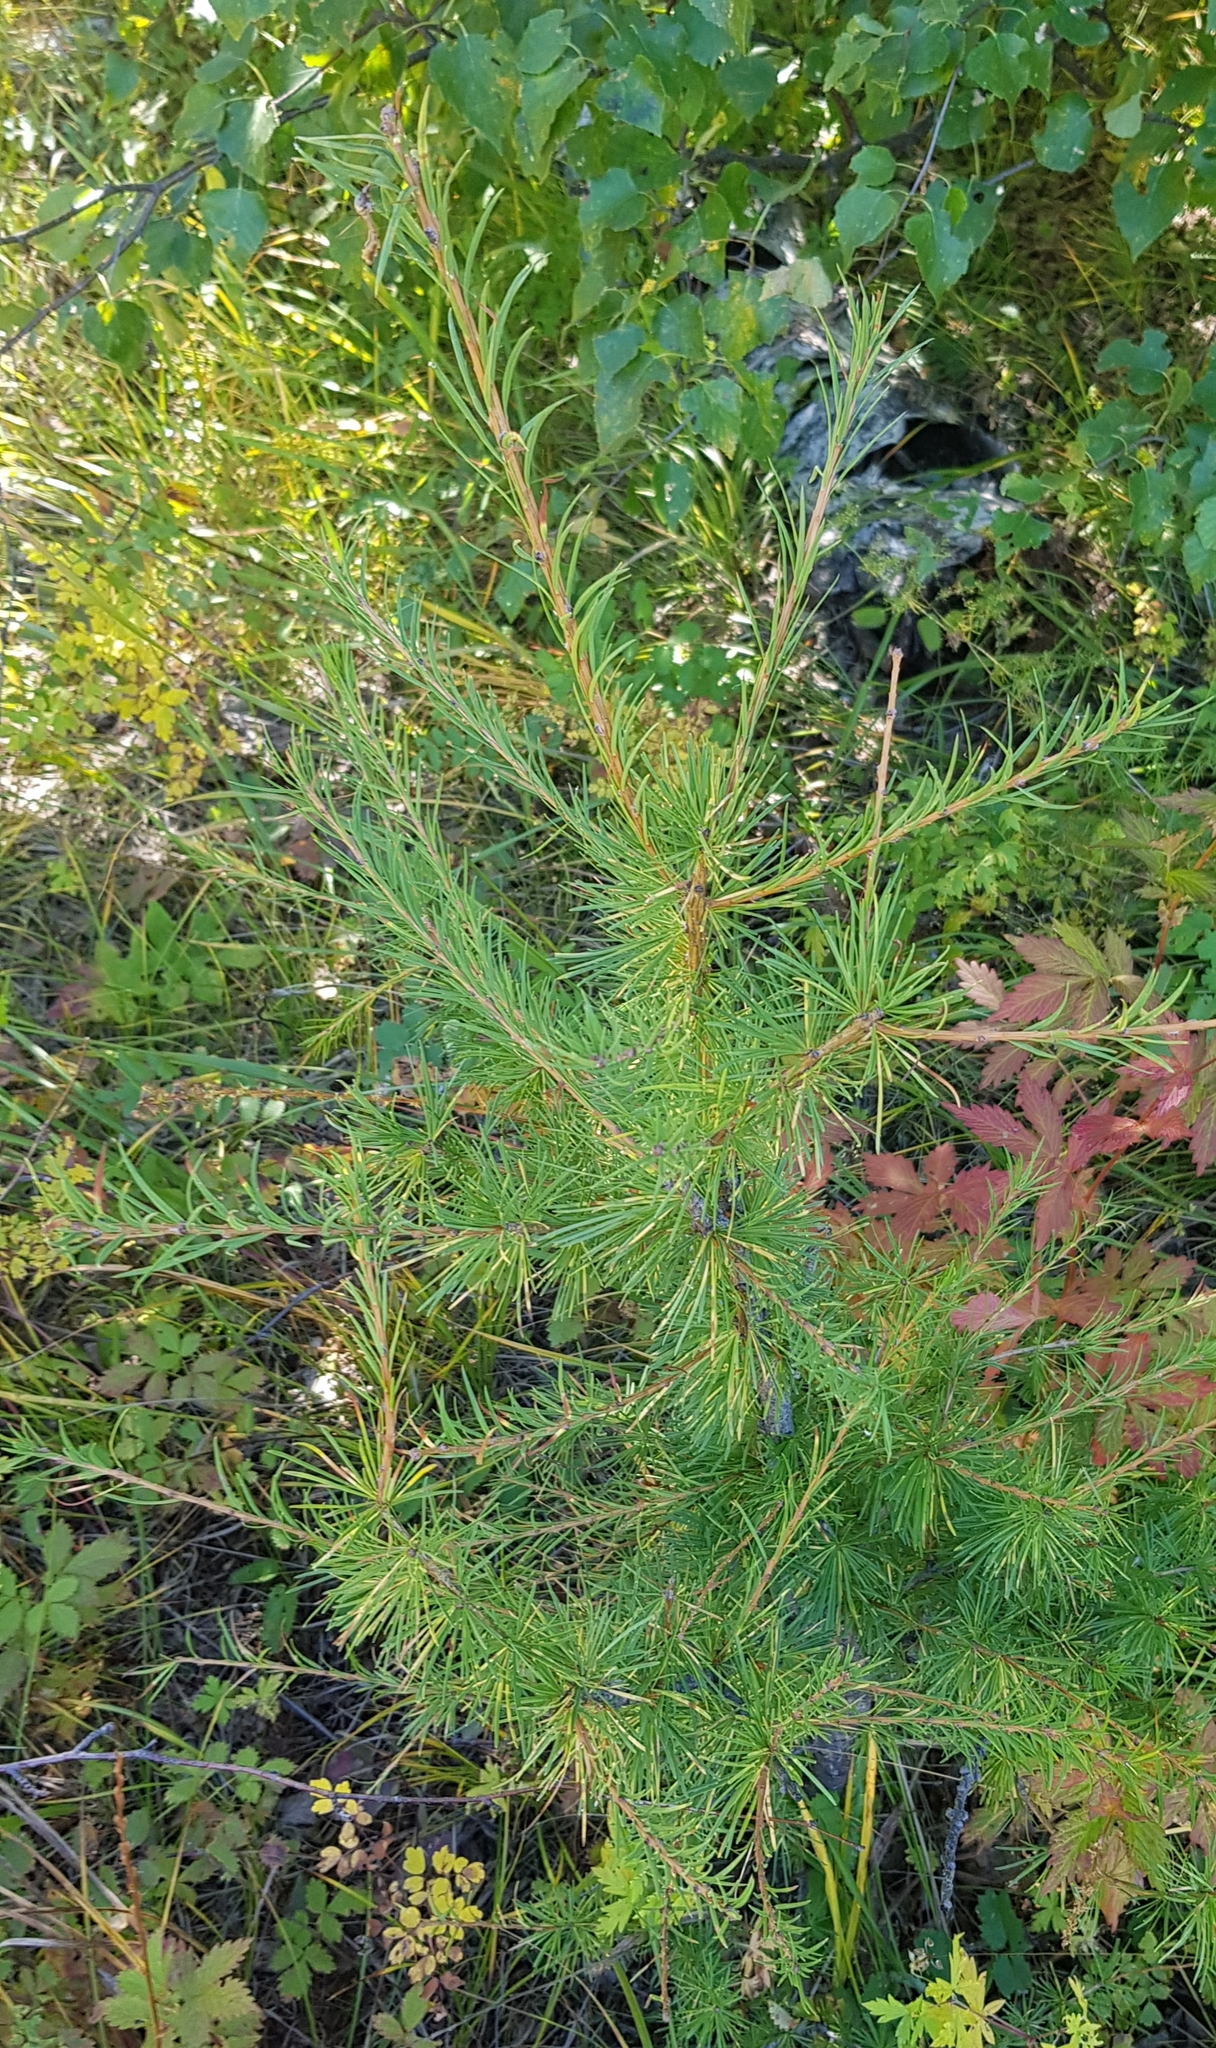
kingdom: Plantae
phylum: Tracheophyta
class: Pinopsida
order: Pinales
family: Pinaceae
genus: Larix
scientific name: Larix gmelinii
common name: Dahurian larch
